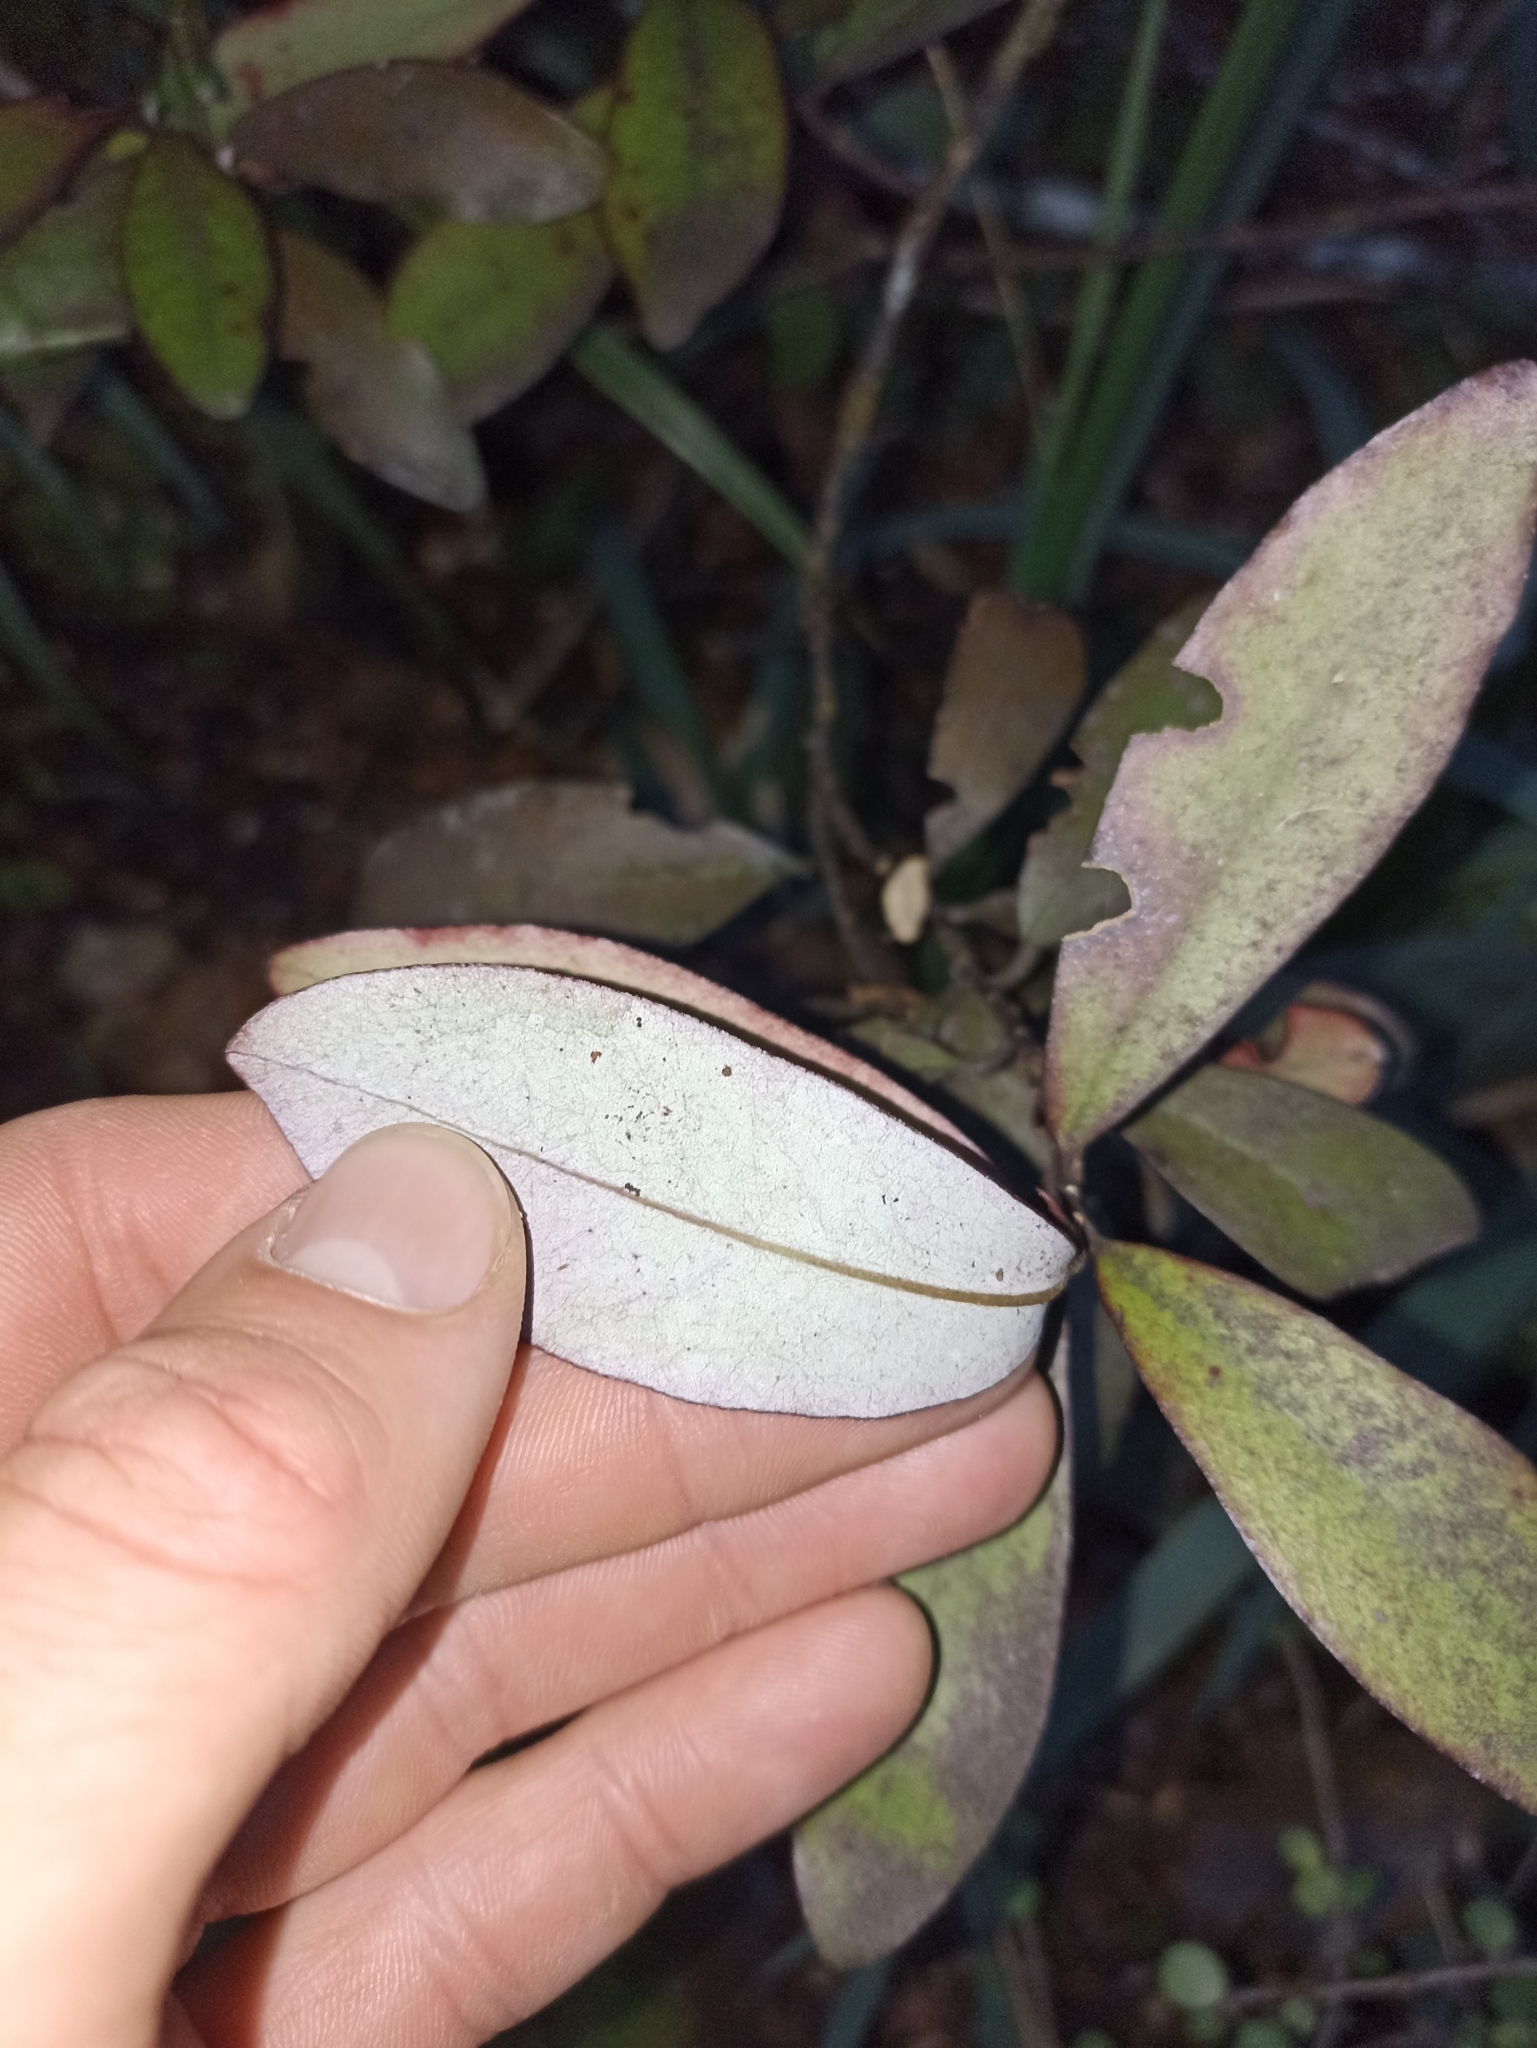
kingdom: Plantae
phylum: Tracheophyta
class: Magnoliopsida
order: Canellales
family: Winteraceae
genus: Pseudowintera
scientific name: Pseudowintera colorata
